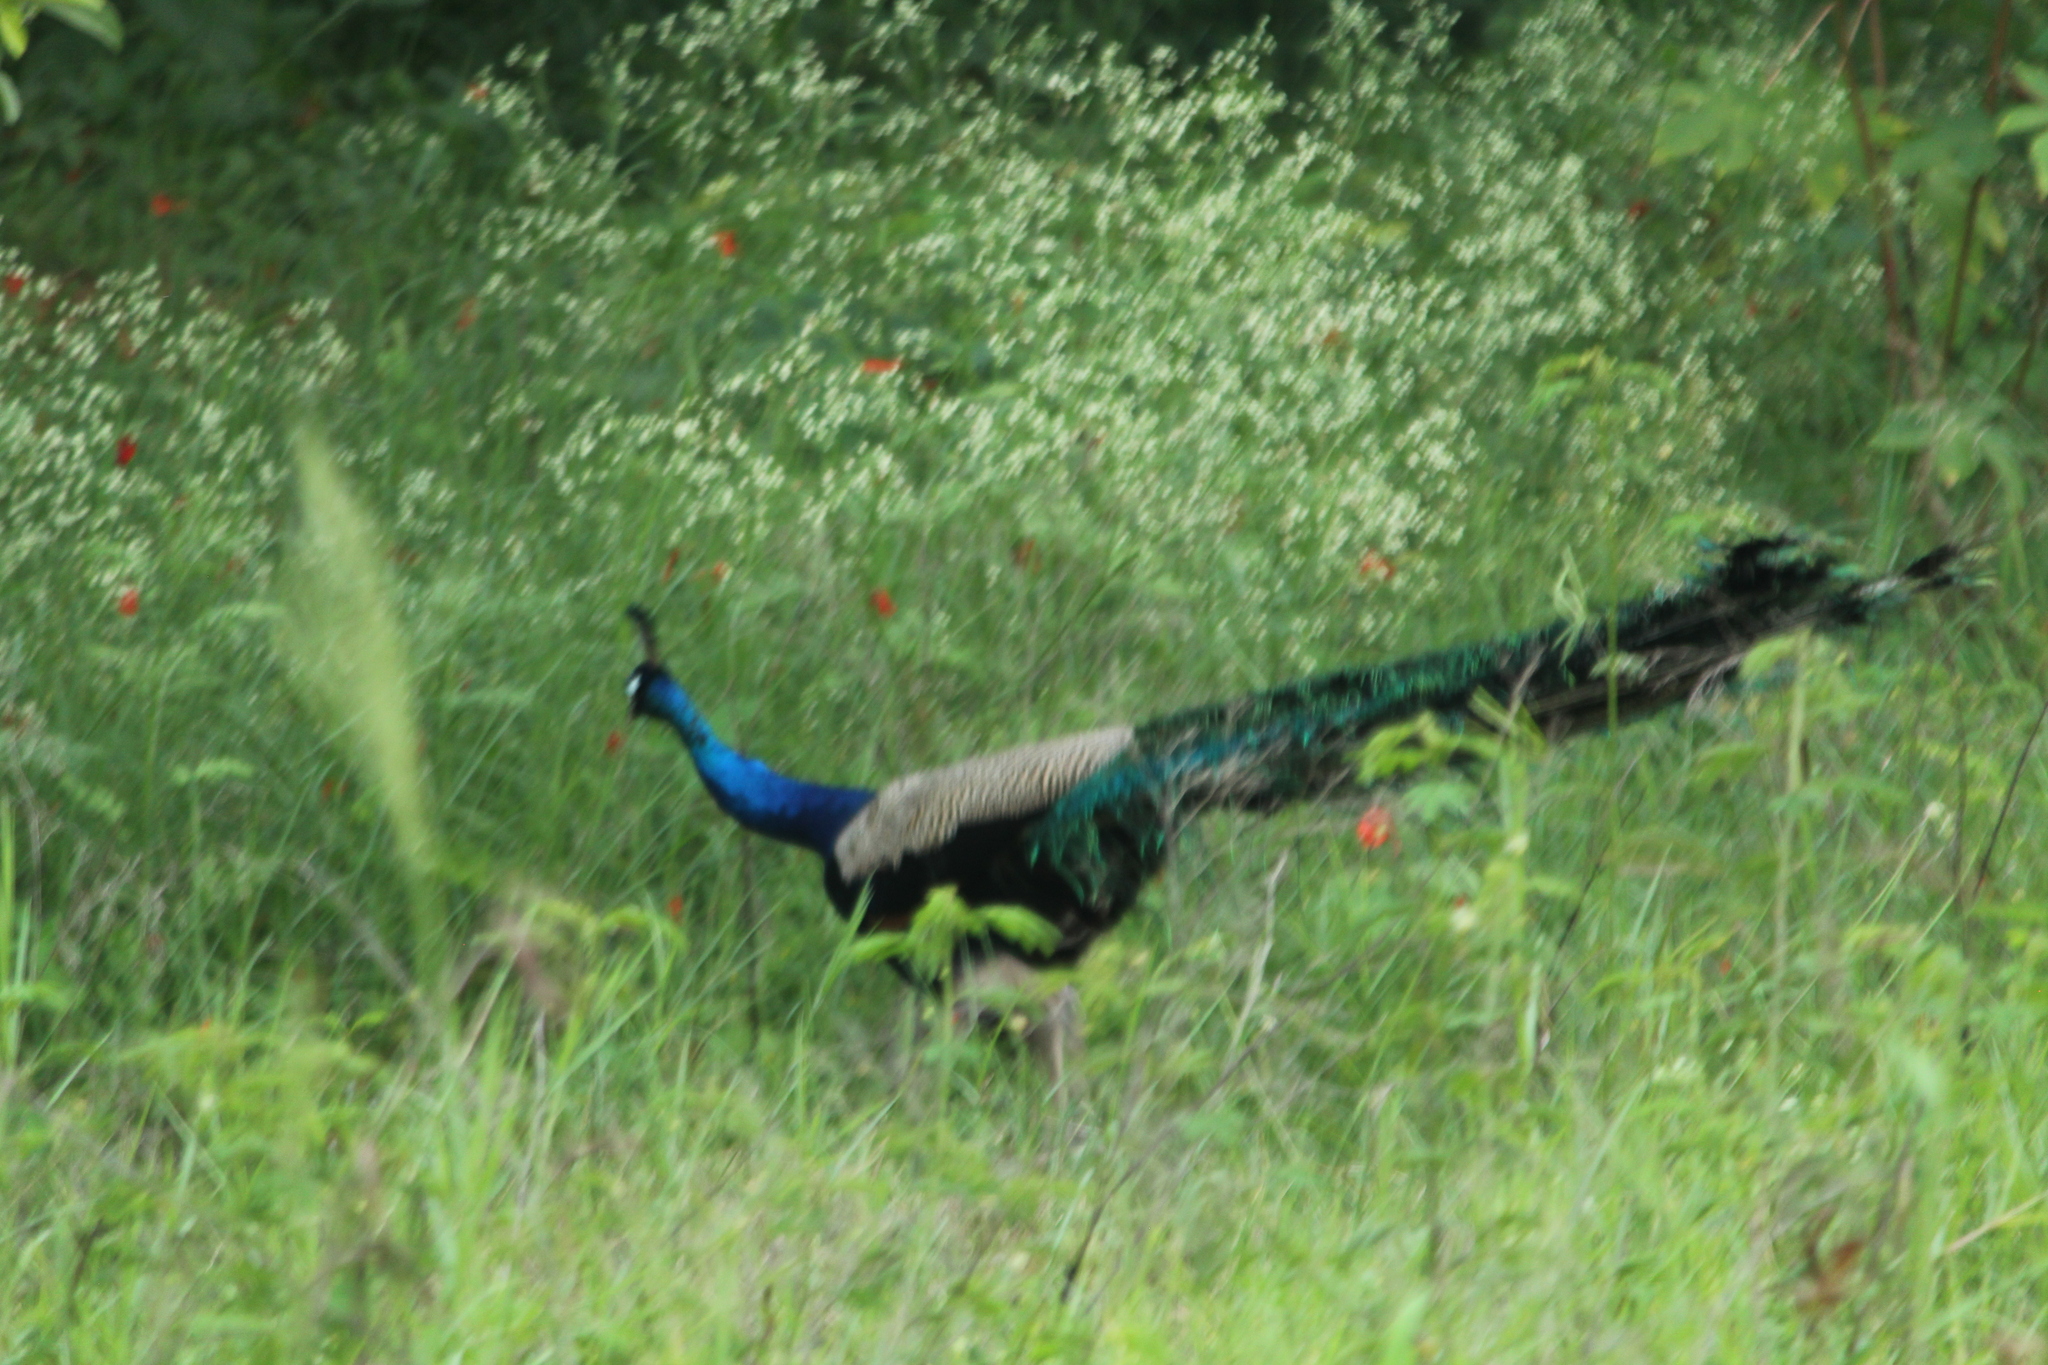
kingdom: Animalia
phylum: Chordata
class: Aves
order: Galliformes
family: Phasianidae
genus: Pavo
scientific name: Pavo cristatus
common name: Indian peafowl
